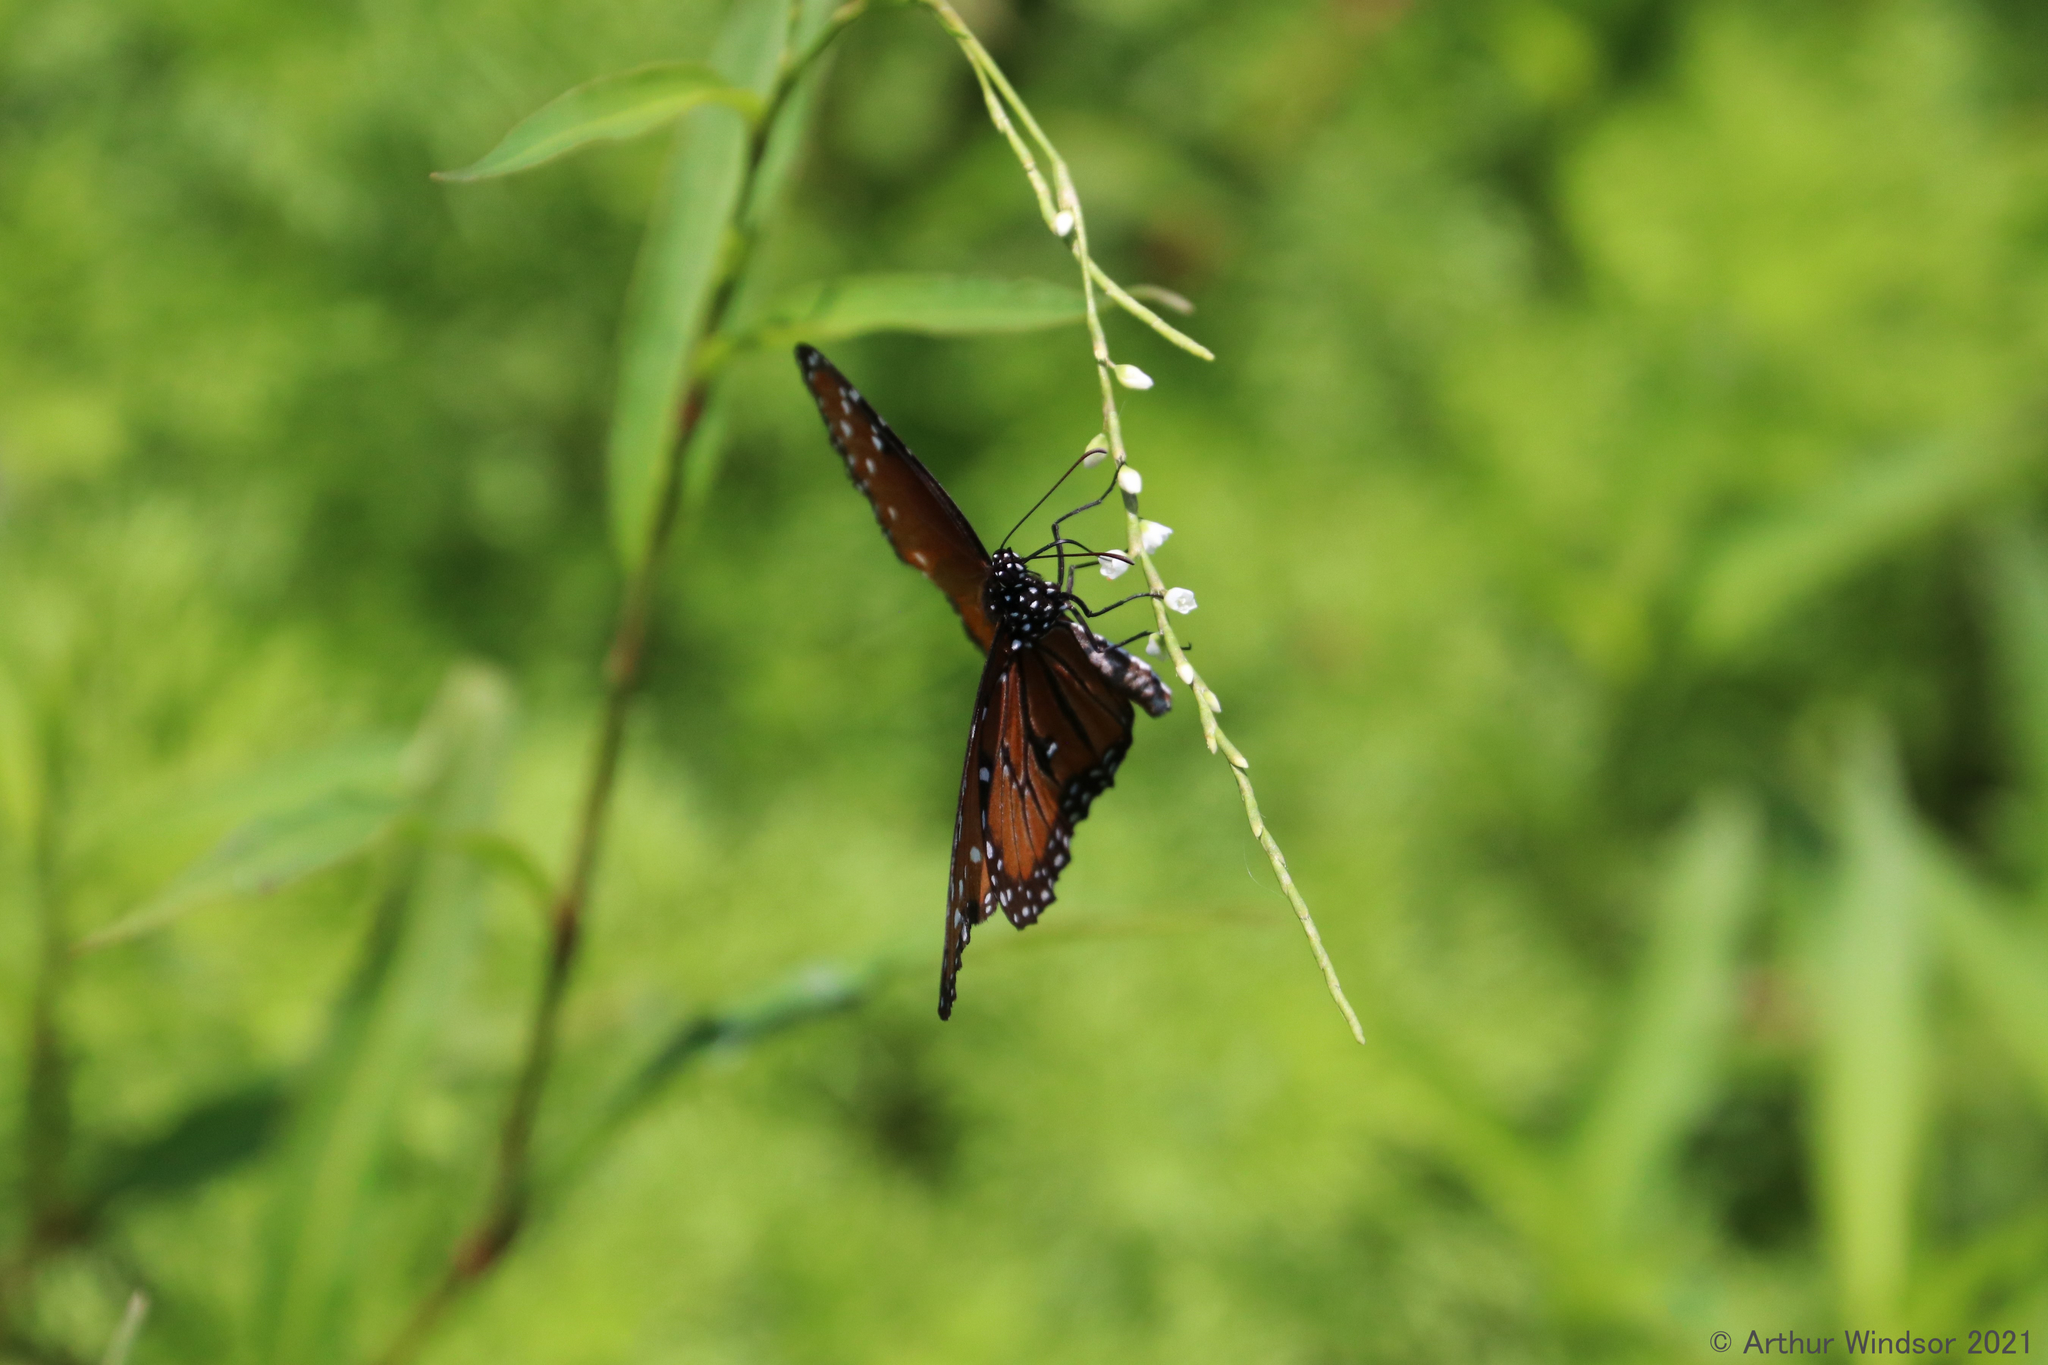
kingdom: Animalia
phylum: Arthropoda
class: Insecta
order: Lepidoptera
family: Nymphalidae
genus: Danaus
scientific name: Danaus gilippus
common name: Queen
